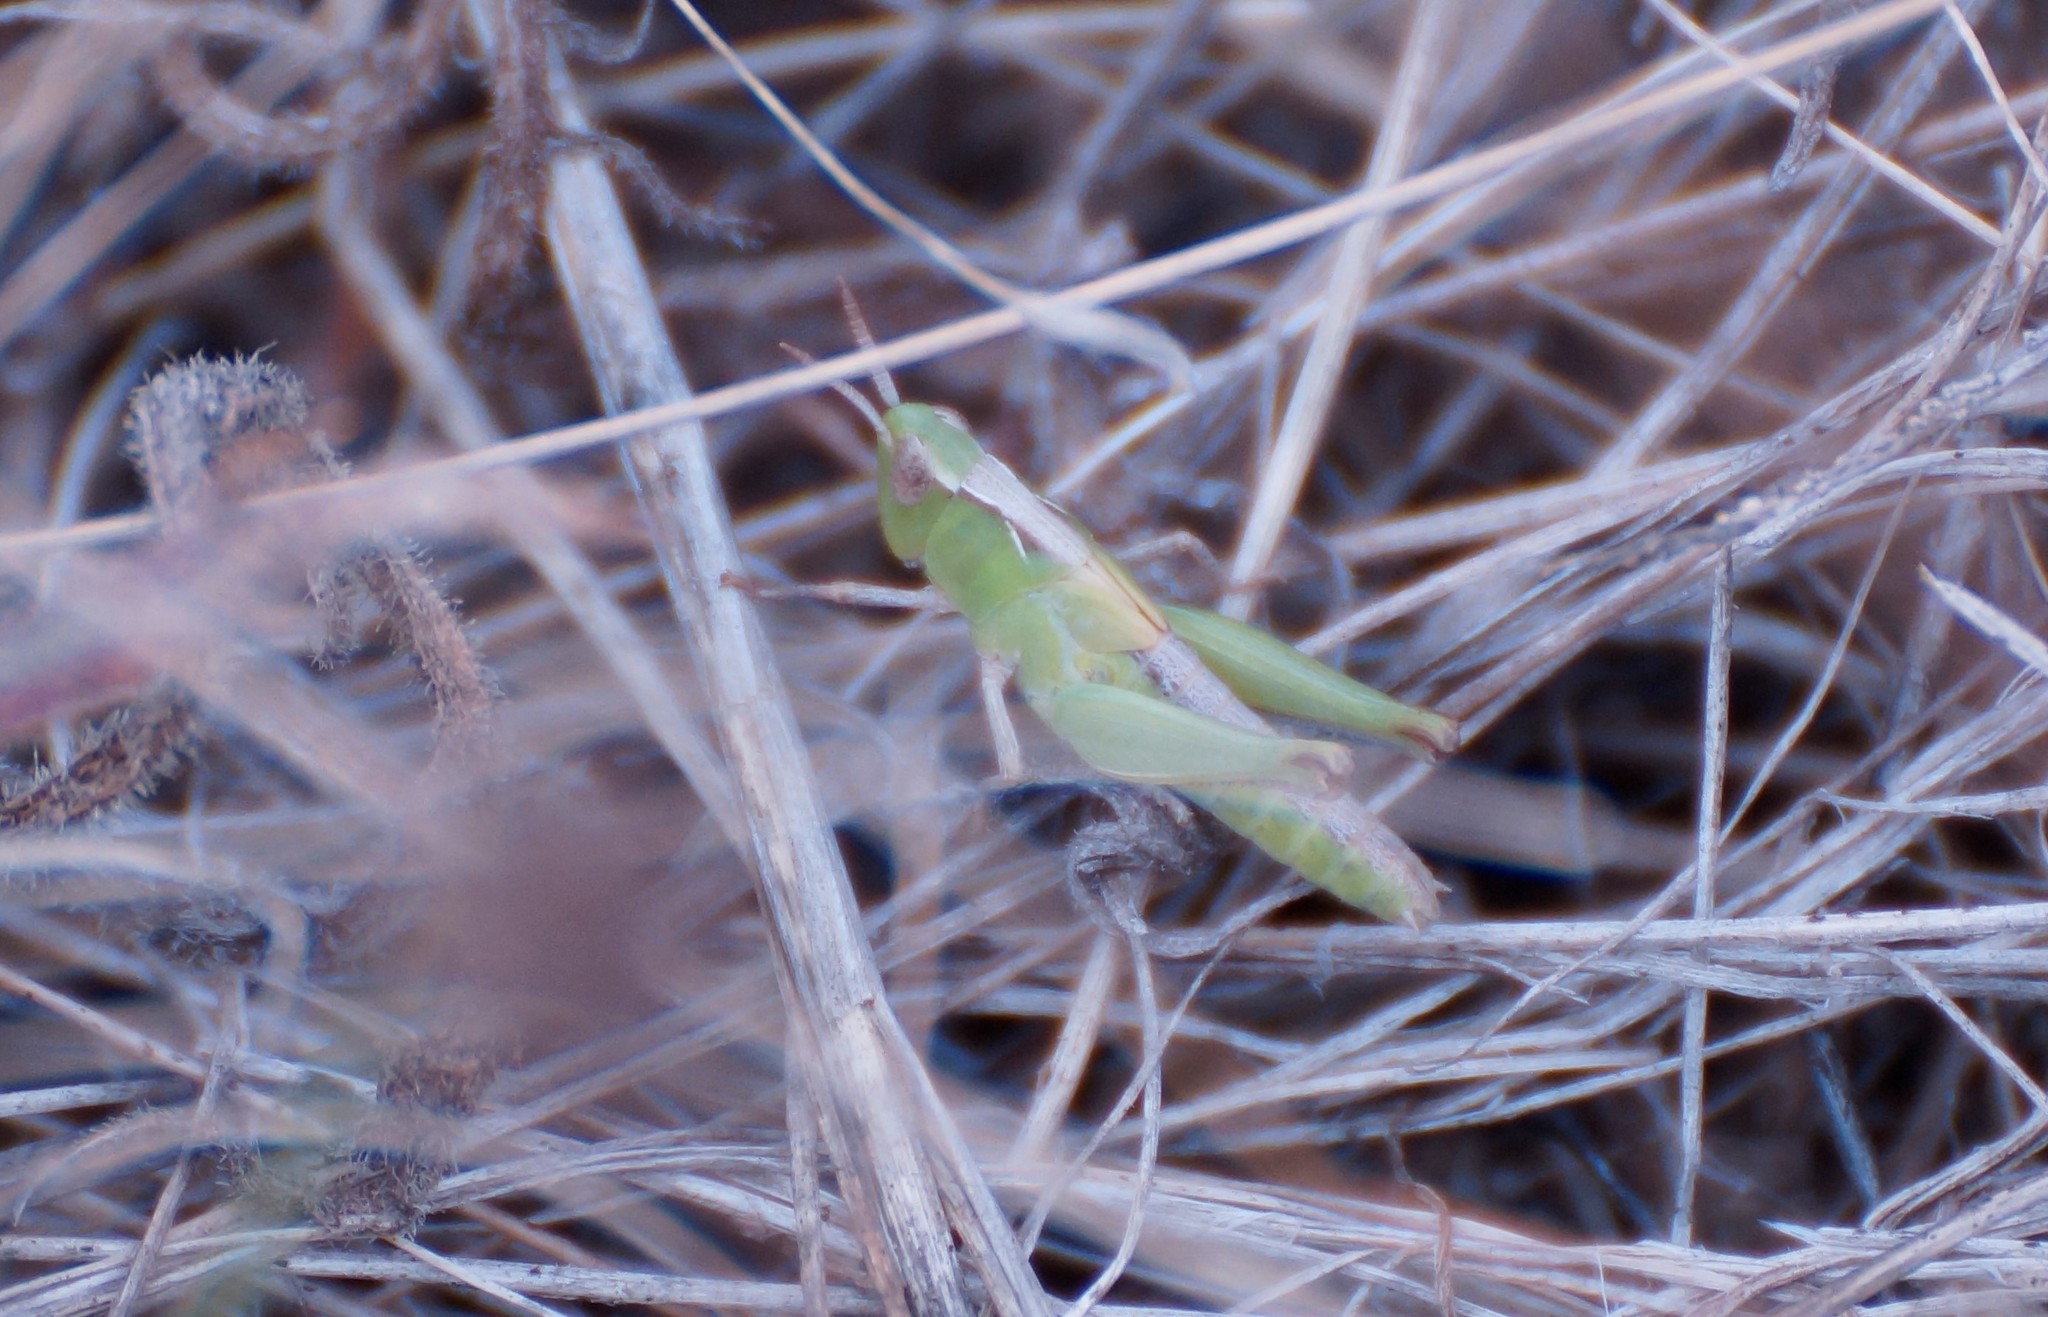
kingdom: Animalia
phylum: Arthropoda
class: Insecta
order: Orthoptera
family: Acrididae
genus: Schizobothrus
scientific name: Schizobothrus flavovittatus
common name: Disappearing grasshopper
